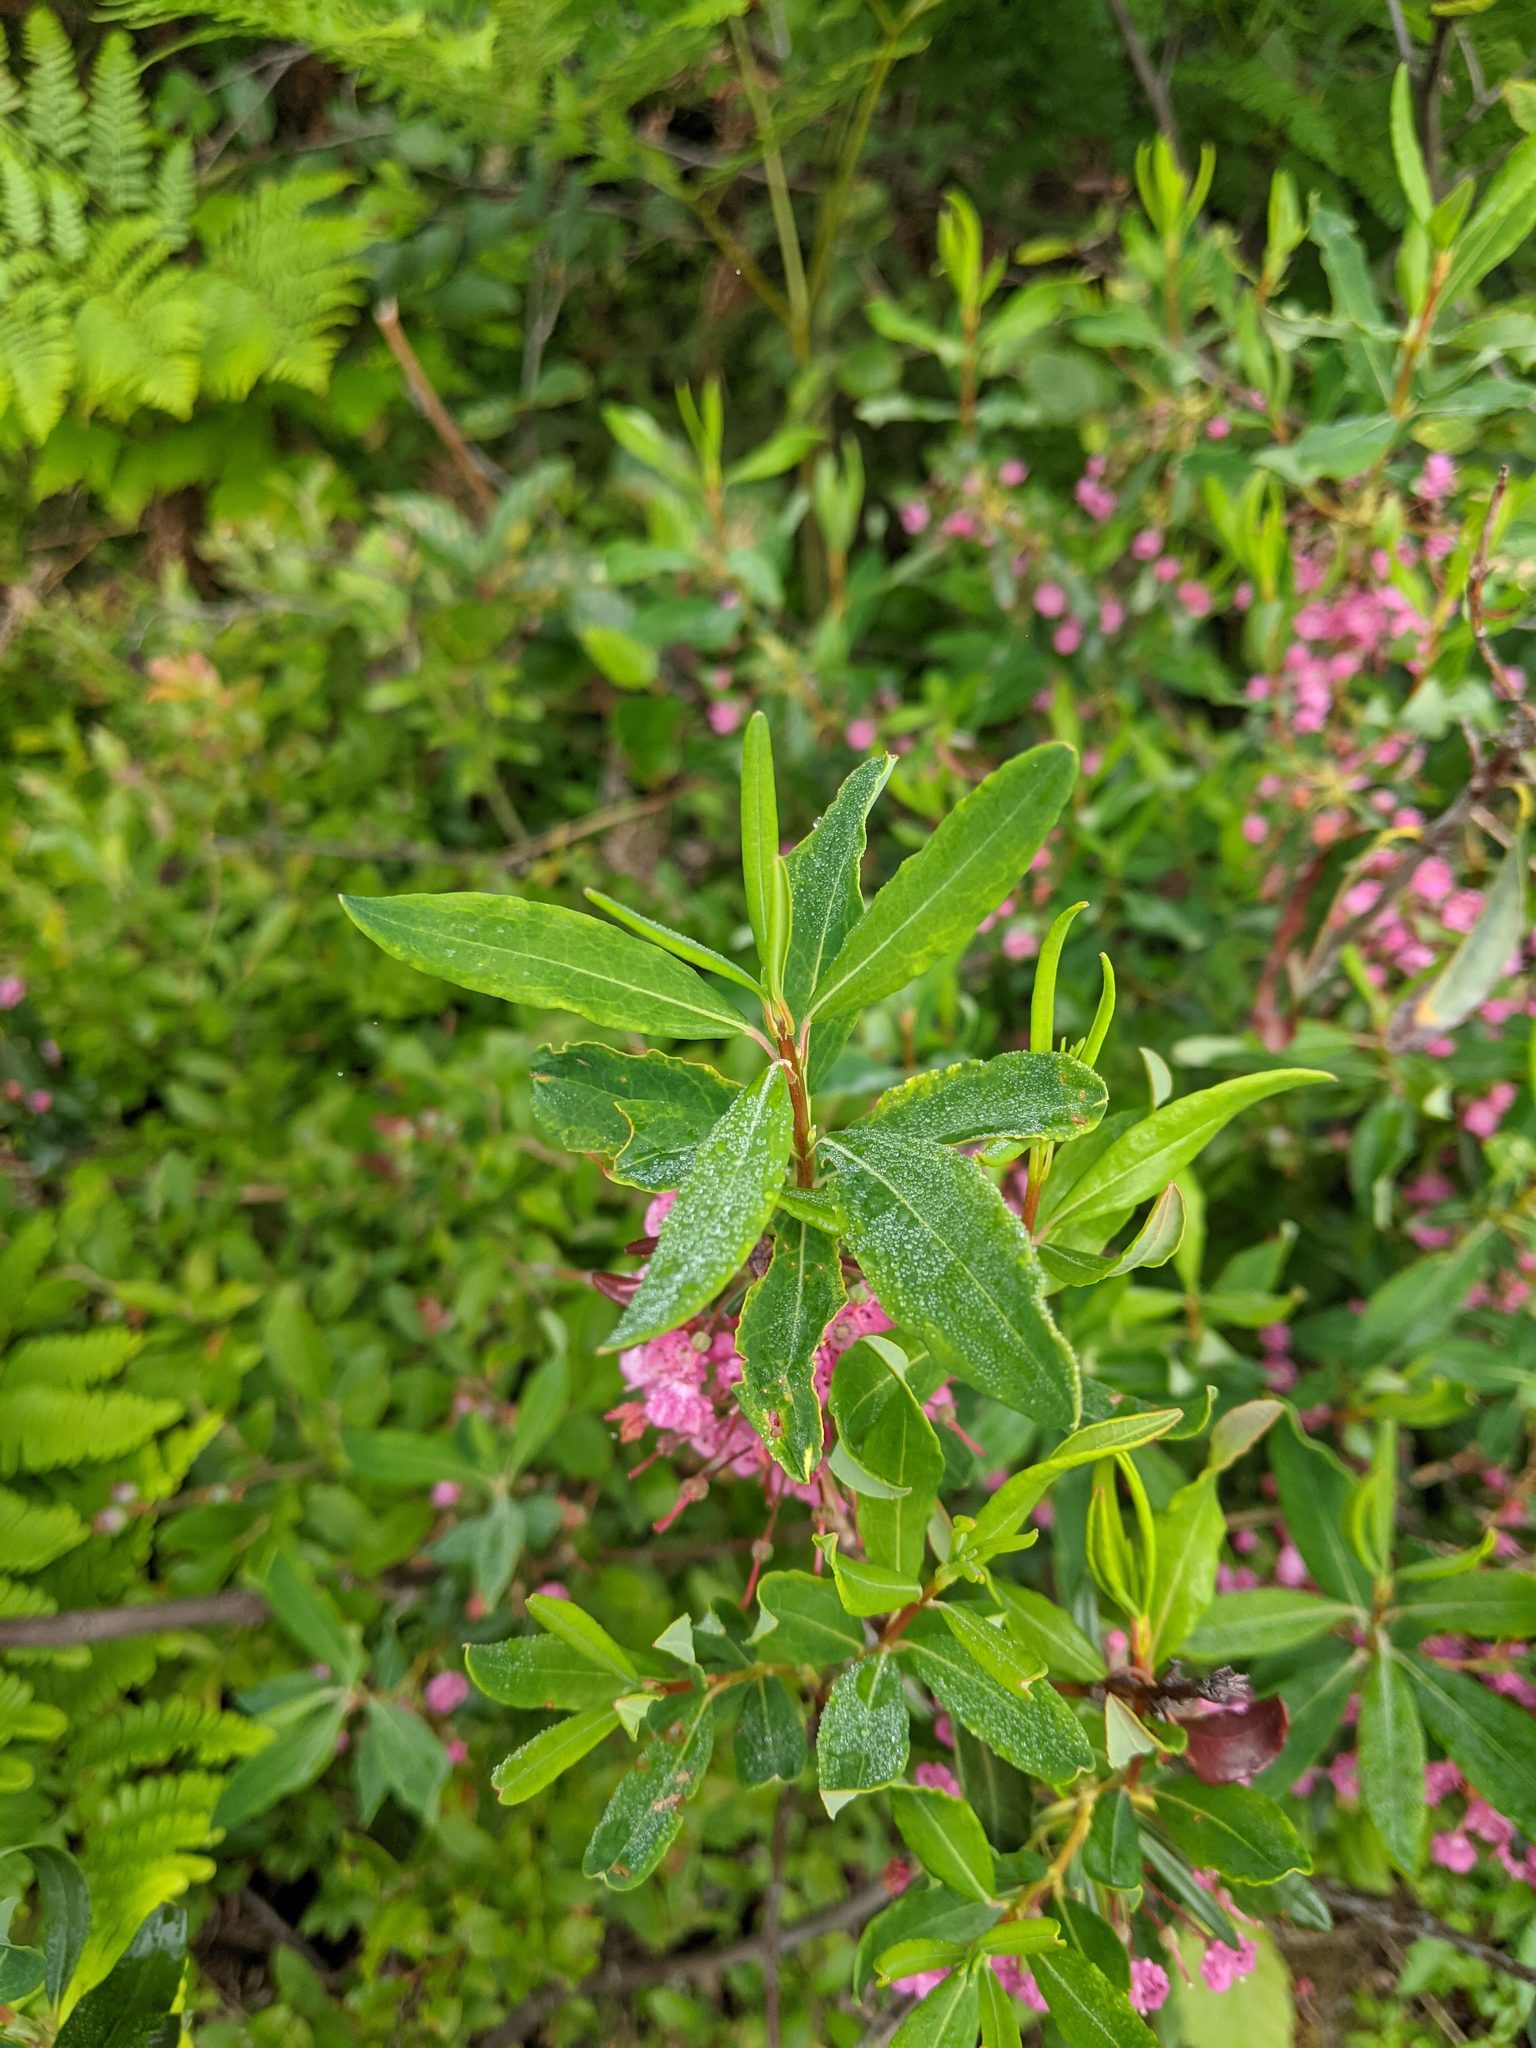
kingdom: Plantae
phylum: Tracheophyta
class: Magnoliopsida
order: Ericales
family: Ericaceae
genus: Kalmia
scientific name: Kalmia angustifolia
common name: Sheep-laurel
